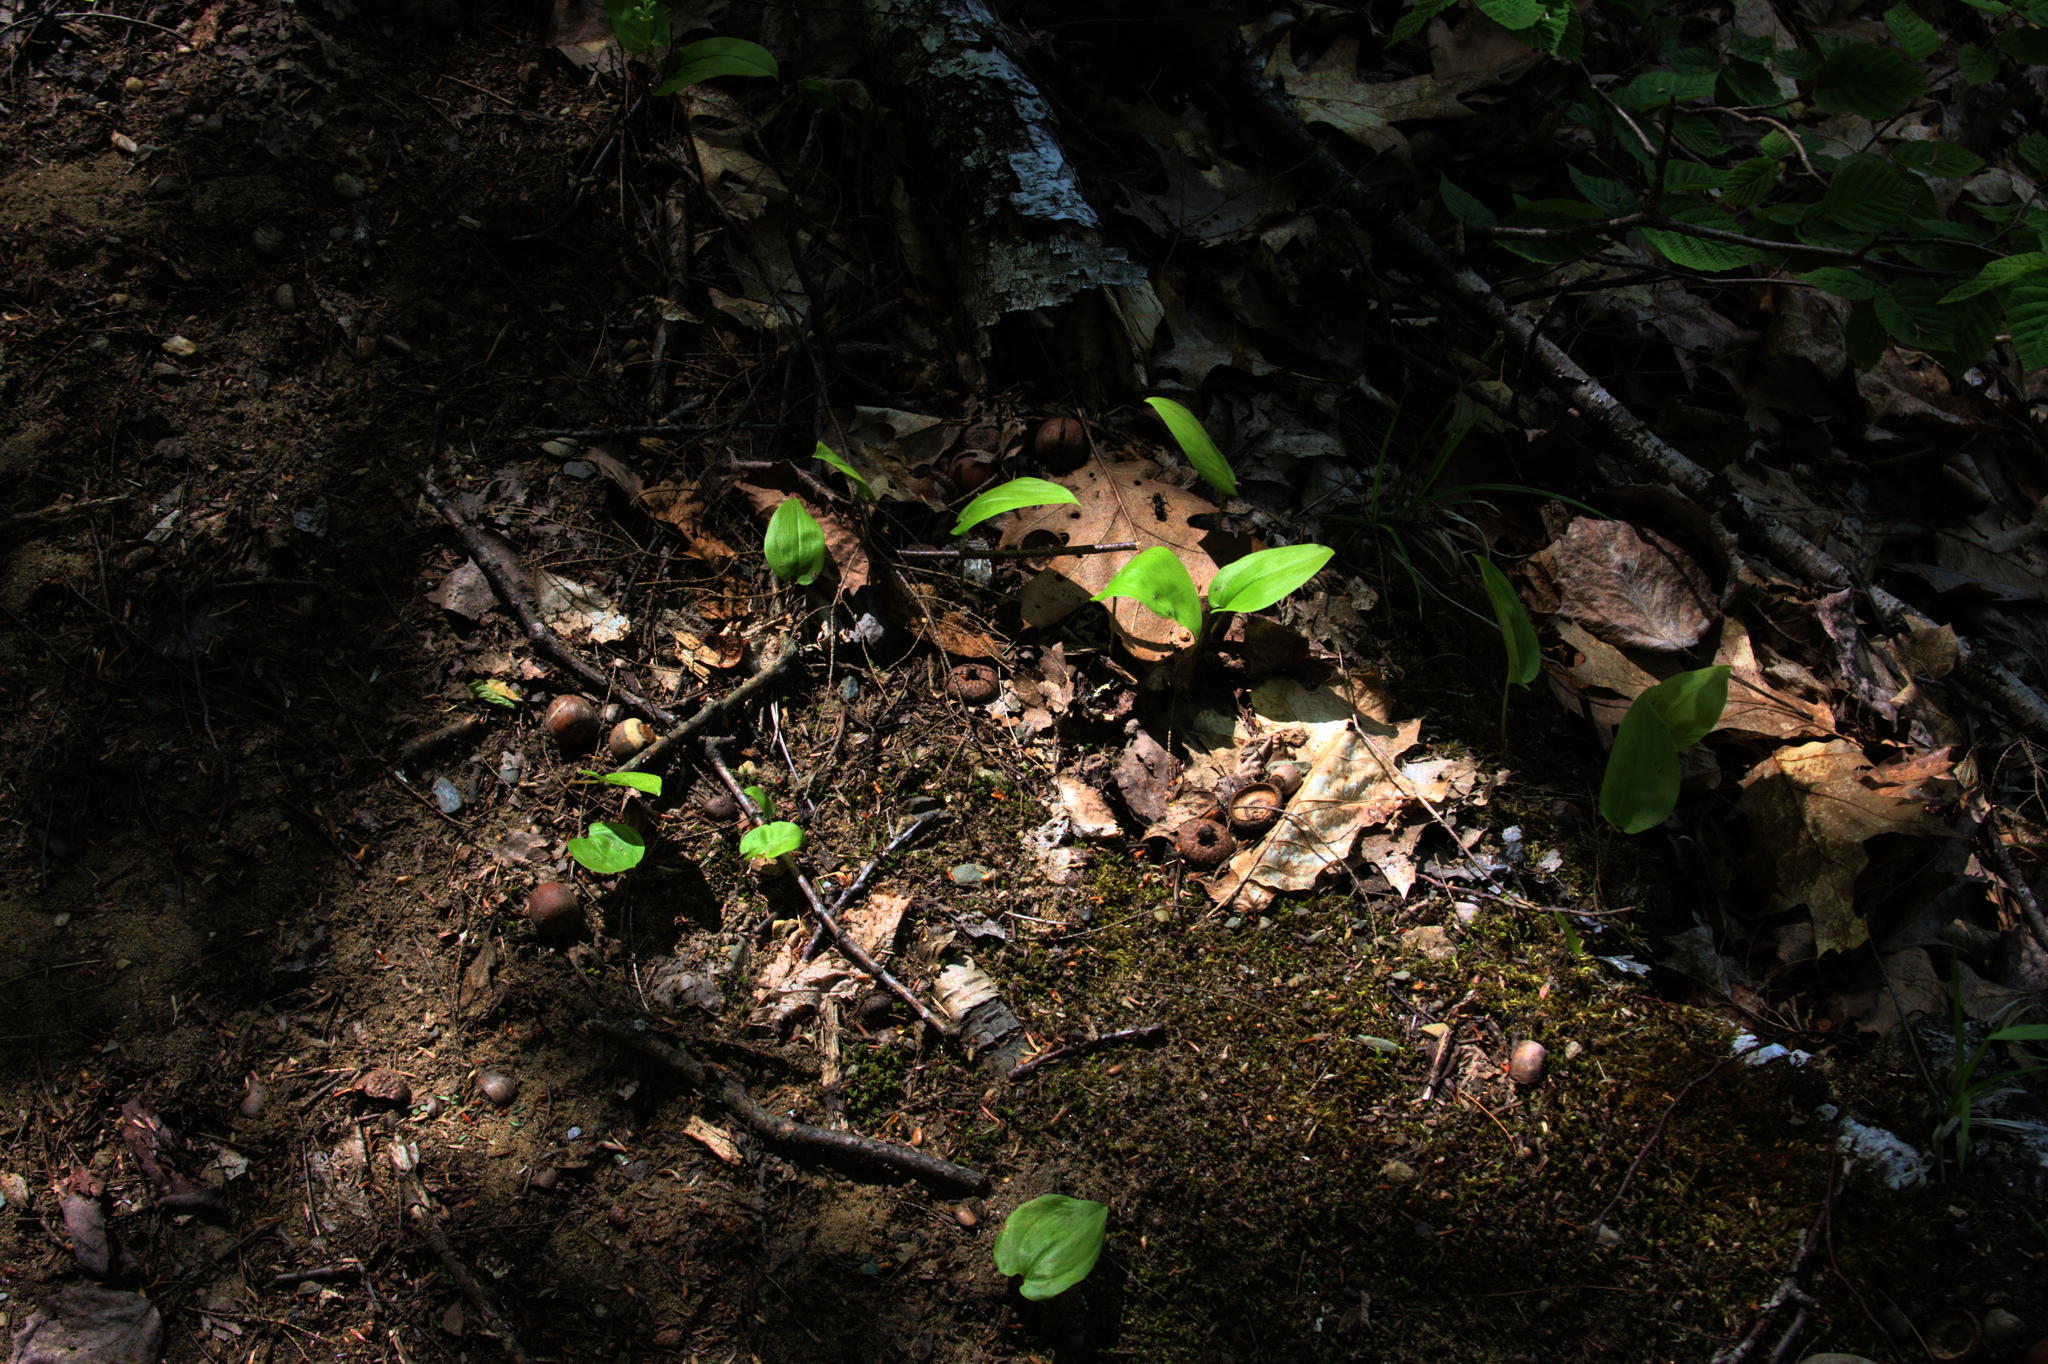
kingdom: Plantae
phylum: Tracheophyta
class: Liliopsida
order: Asparagales
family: Asparagaceae
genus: Maianthemum
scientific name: Maianthemum canadense
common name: False lily-of-the-valley
